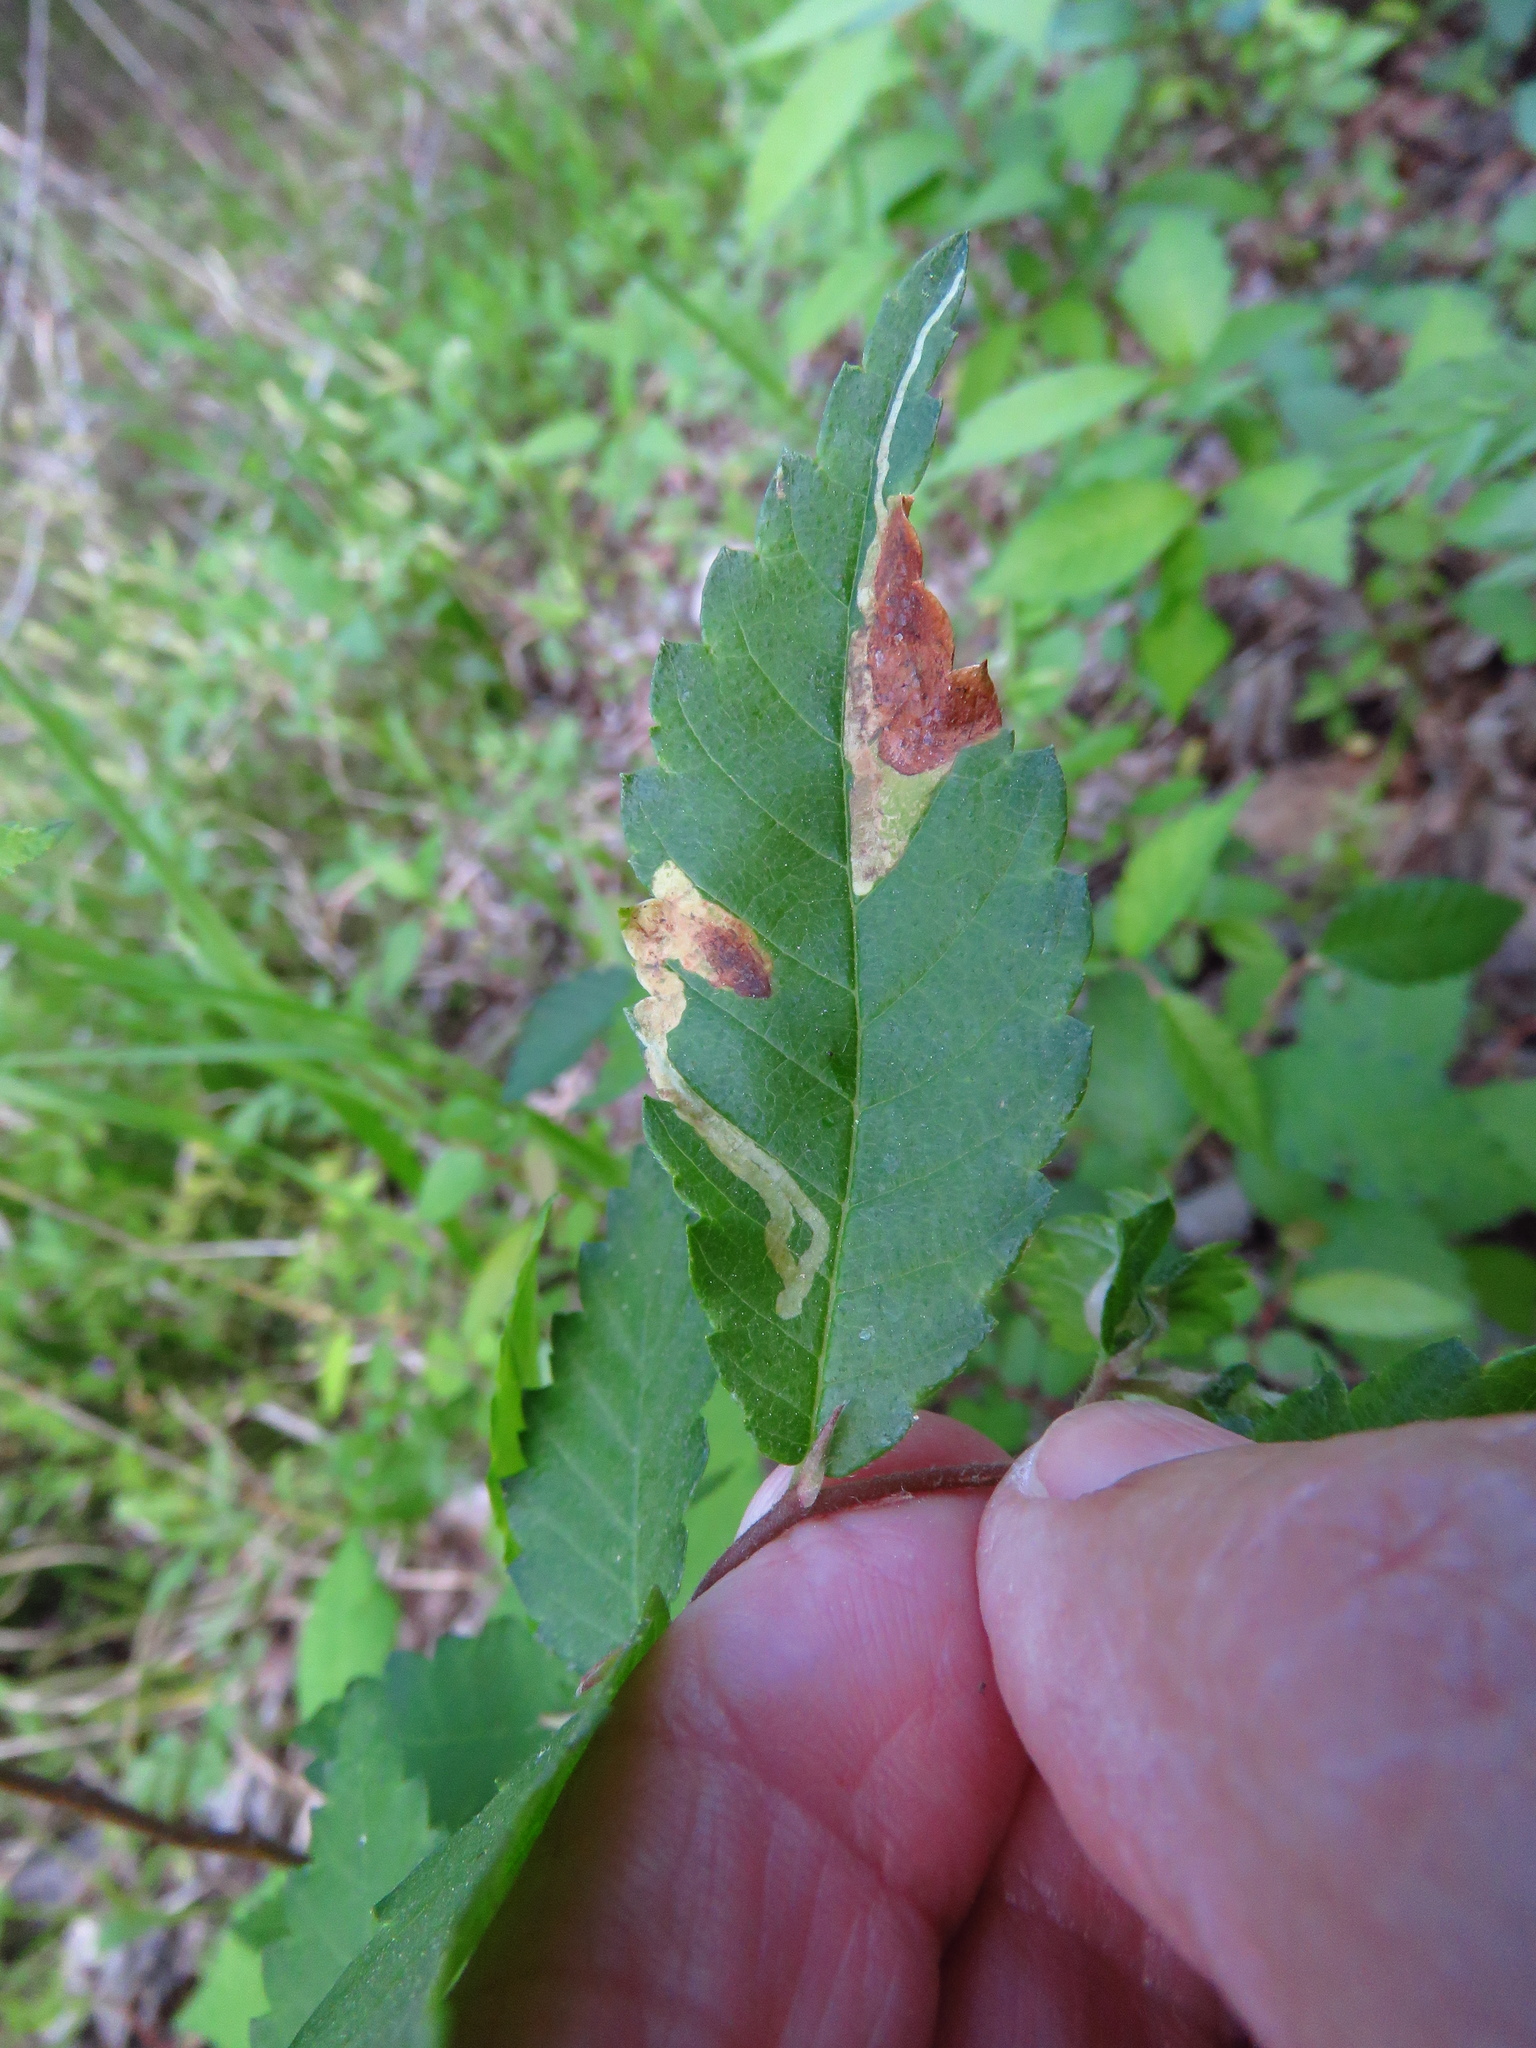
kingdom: Animalia
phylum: Arthropoda
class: Insecta
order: Diptera
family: Agromyzidae
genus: Agromyza
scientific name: Agromyza aristata
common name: Elm agromyzid leafminer
